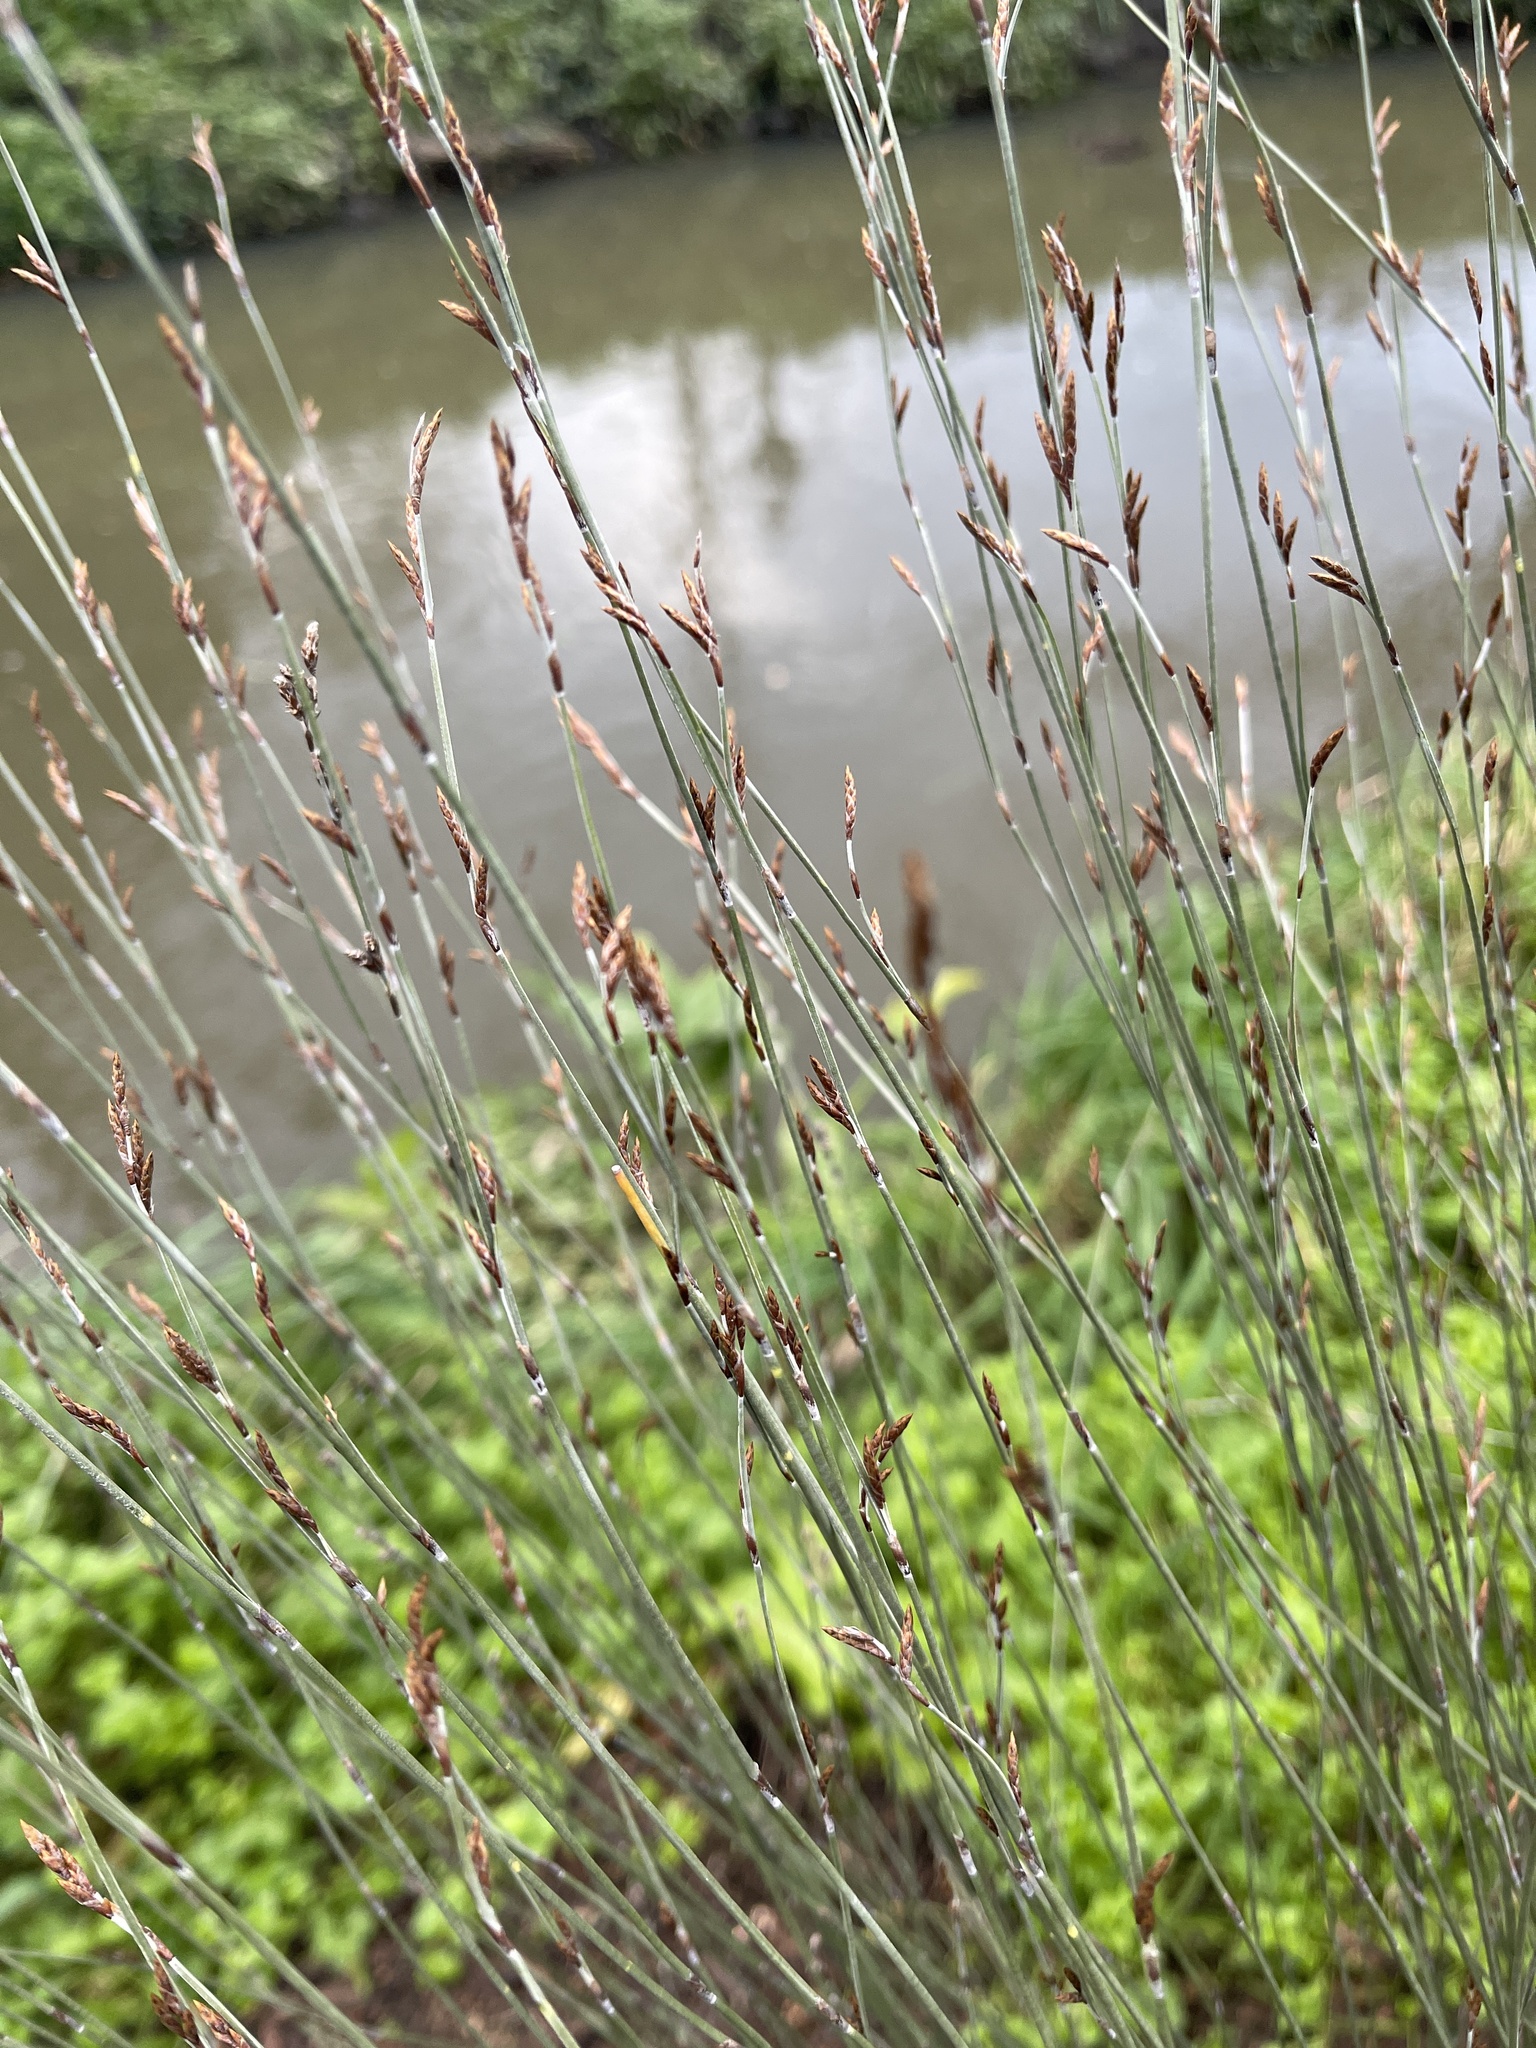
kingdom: Plantae
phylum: Tracheophyta
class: Liliopsida
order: Poales
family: Restionaceae
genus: Apodasmia
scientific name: Apodasmia similis
